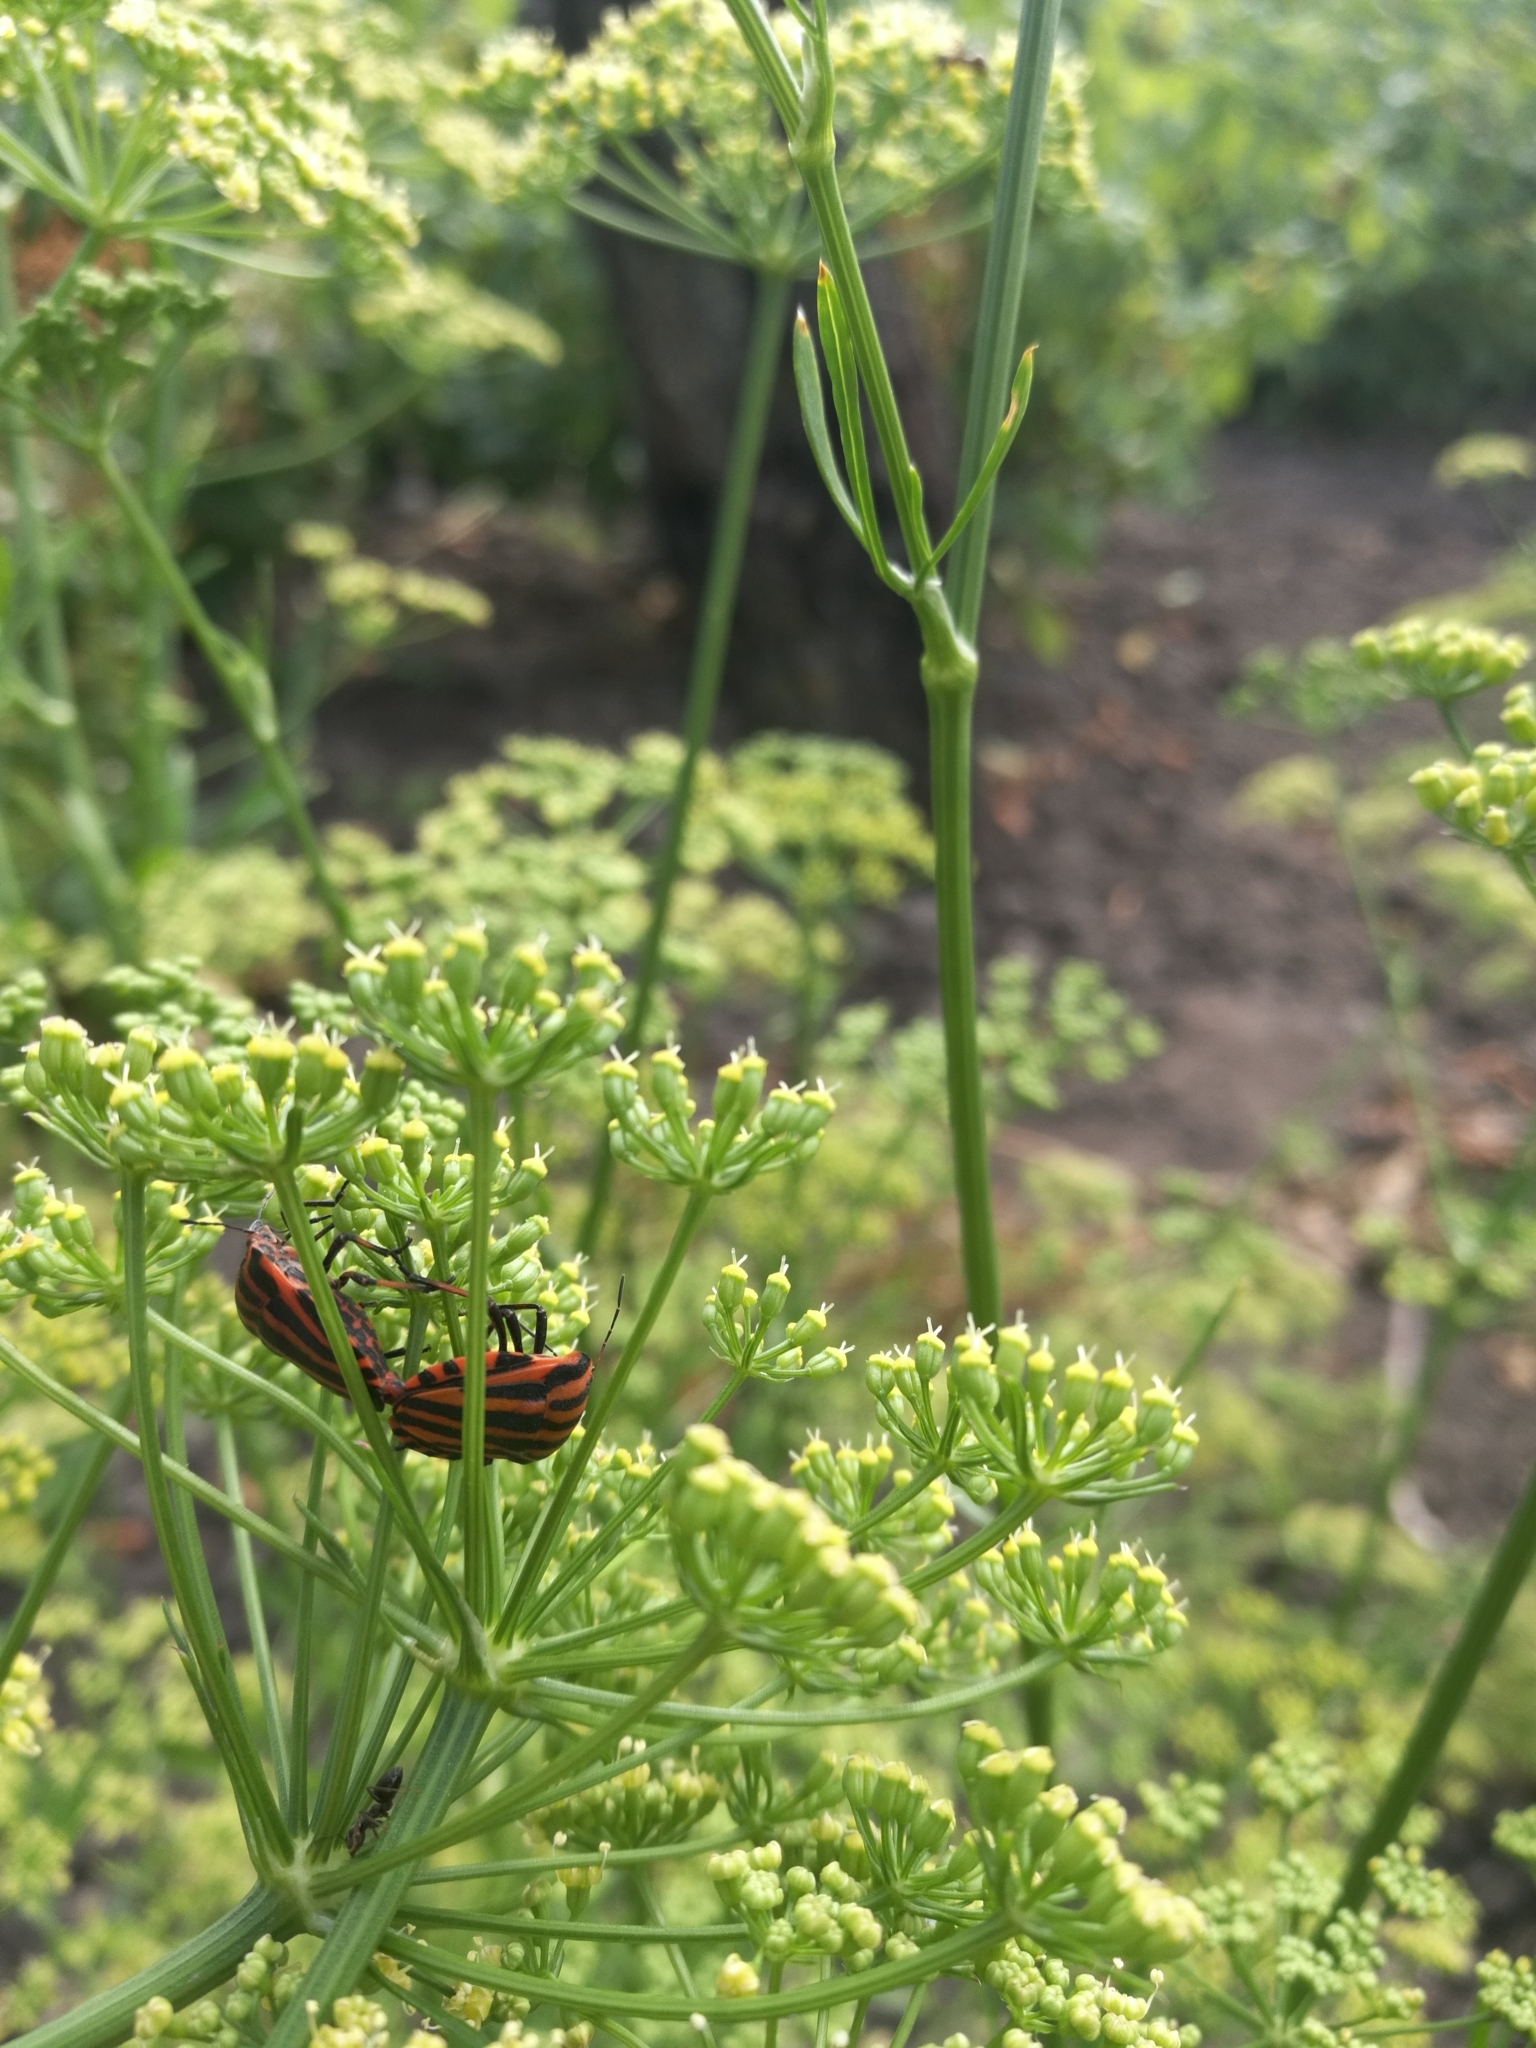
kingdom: Animalia
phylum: Arthropoda
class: Insecta
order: Hemiptera
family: Pentatomidae
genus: Graphosoma
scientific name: Graphosoma italicum
